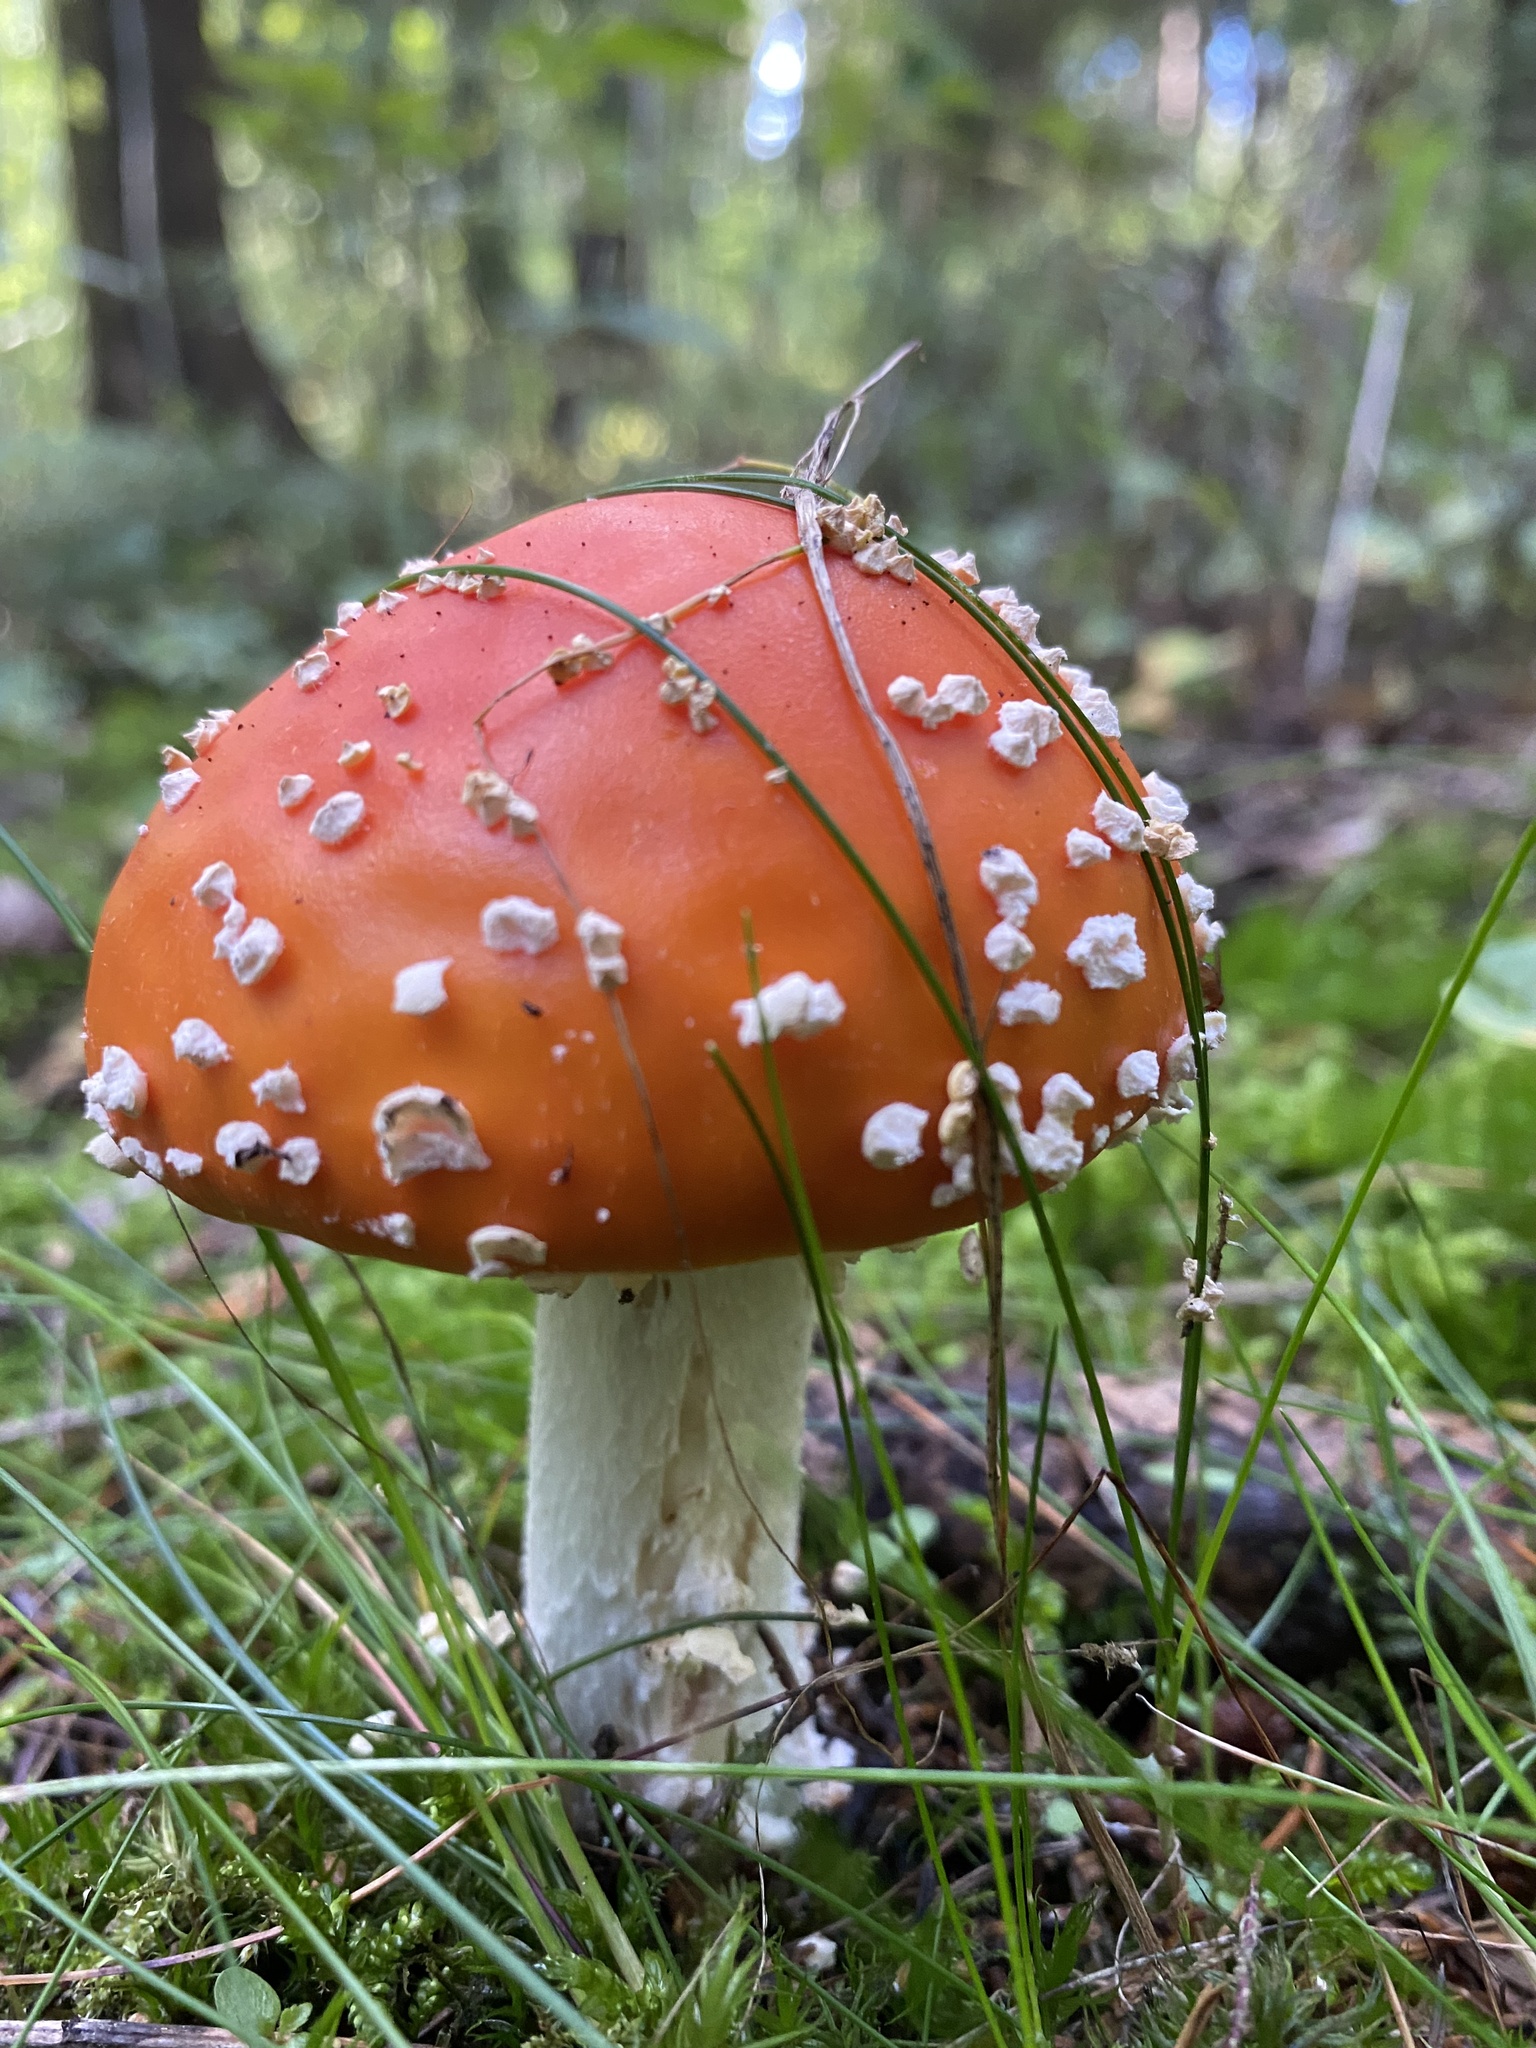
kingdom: Fungi
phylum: Basidiomycota
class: Agaricomycetes
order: Agaricales
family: Amanitaceae
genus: Amanita
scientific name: Amanita muscaria
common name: Fly agaric
